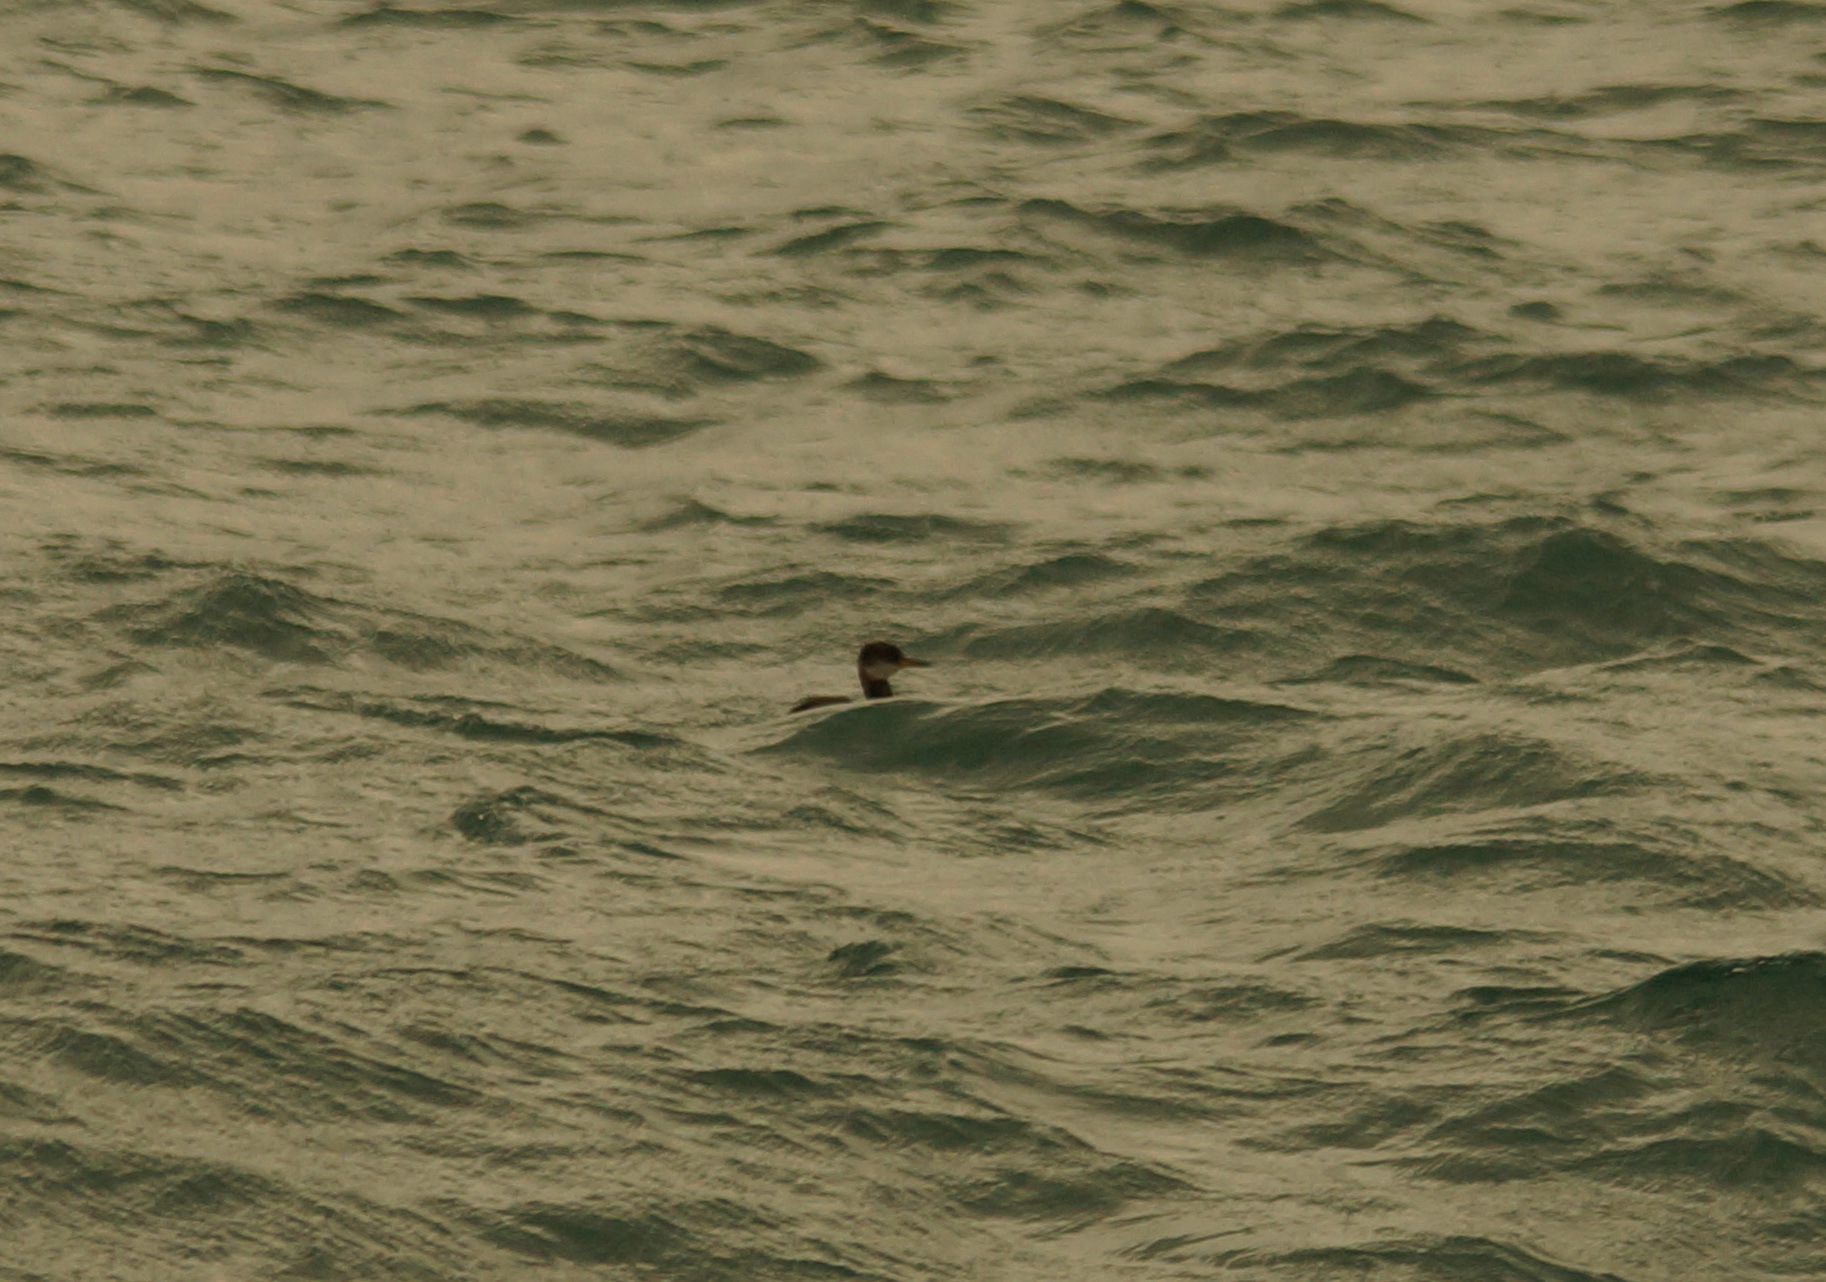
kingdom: Animalia
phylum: Chordata
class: Aves
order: Podicipediformes
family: Podicipedidae
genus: Podiceps
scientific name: Podiceps grisegena
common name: Red-necked grebe
